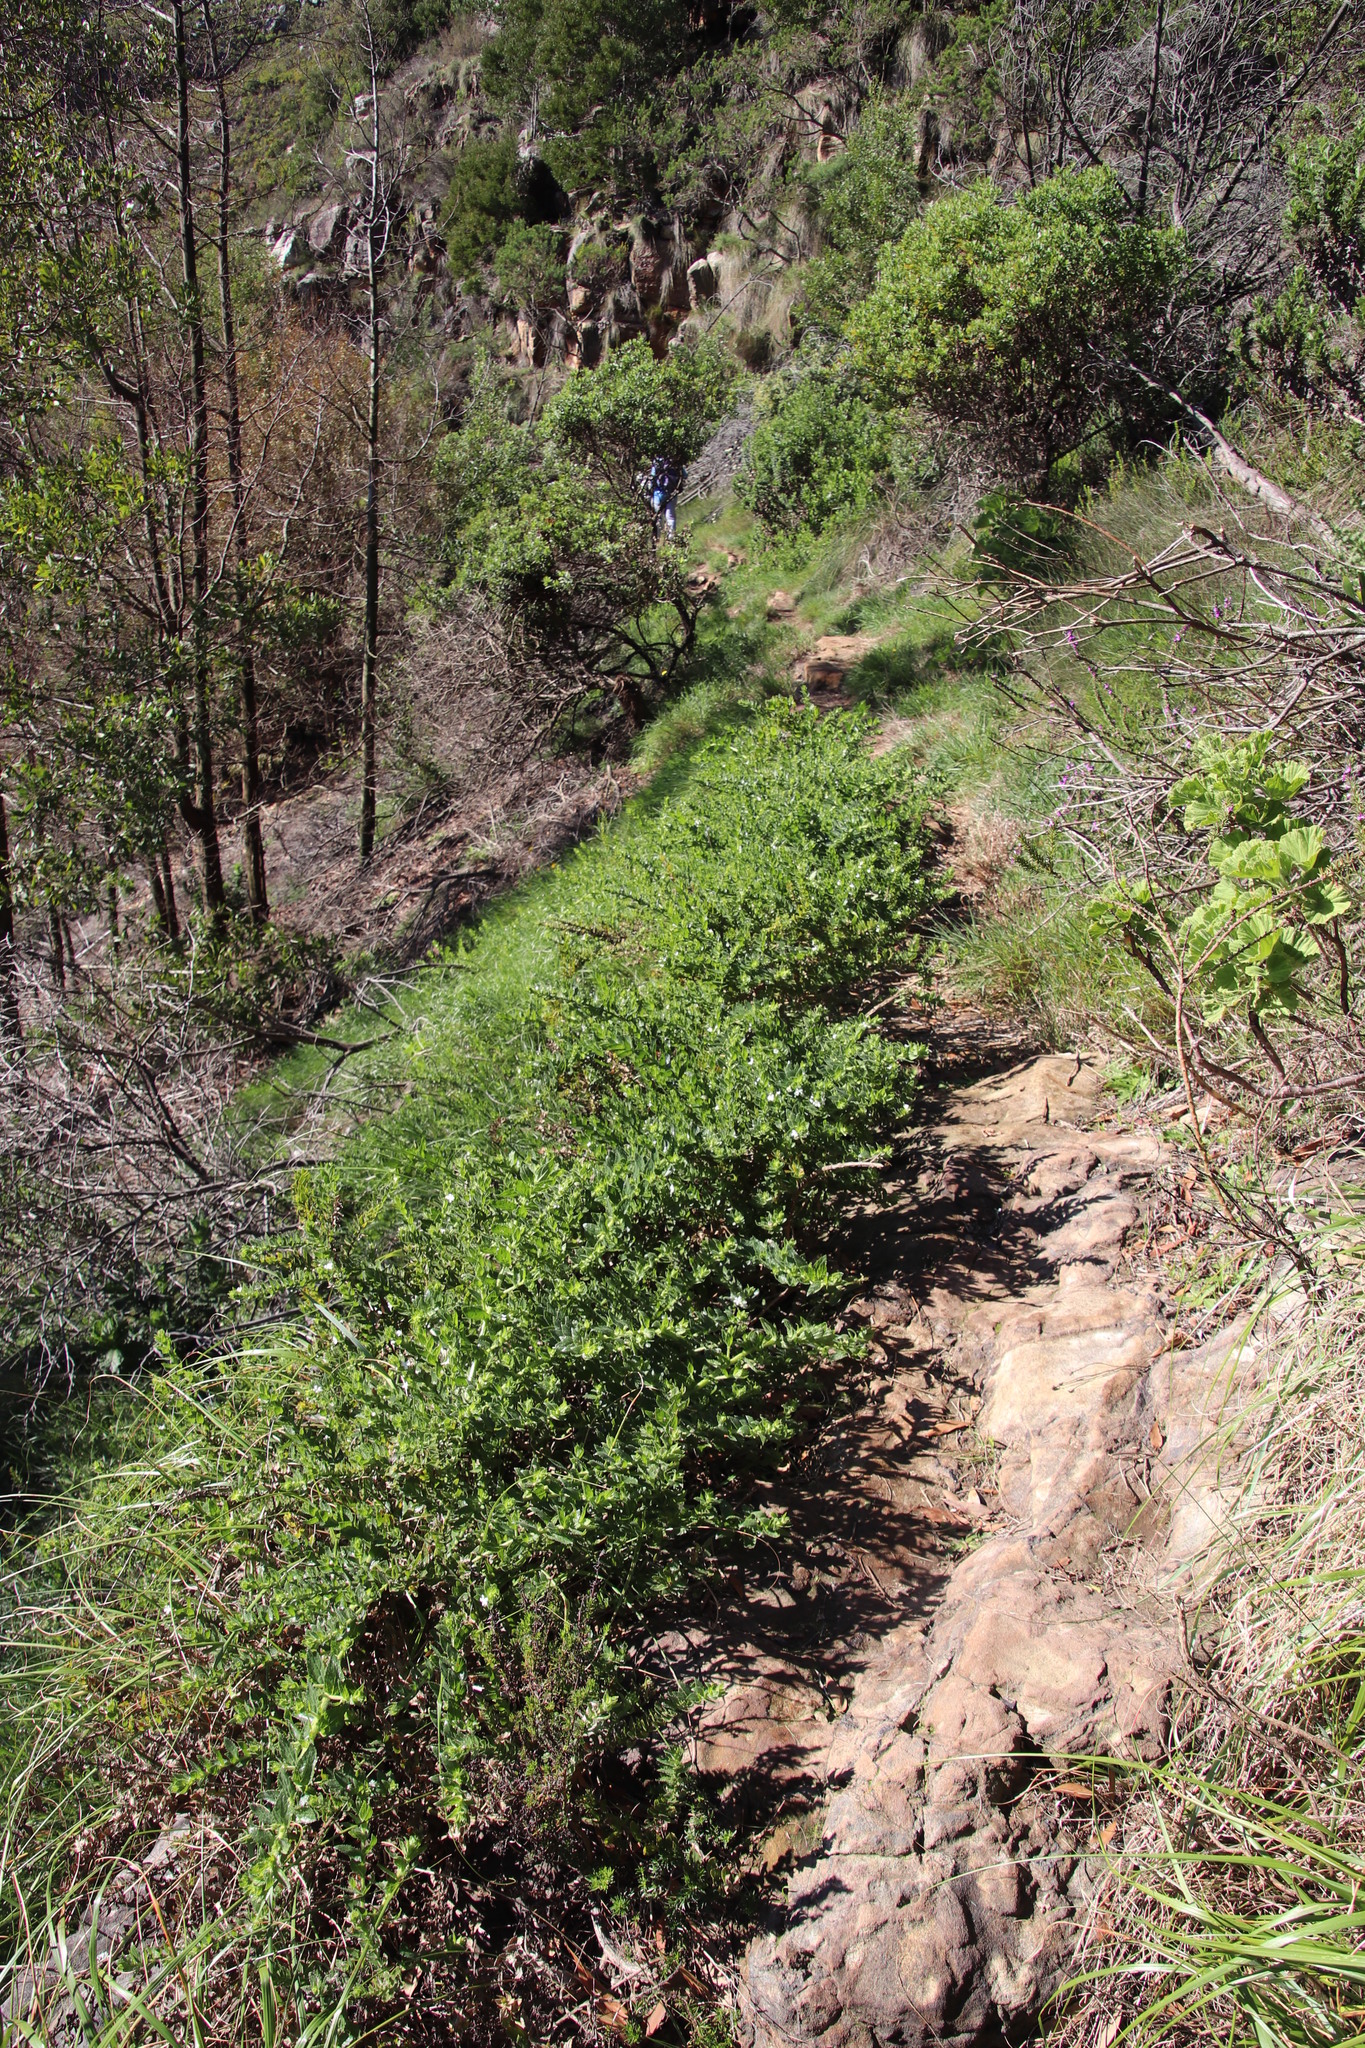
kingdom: Plantae
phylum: Tracheophyta
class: Magnoliopsida
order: Lamiales
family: Scrophulariaceae
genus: Oftia
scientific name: Oftia africana
